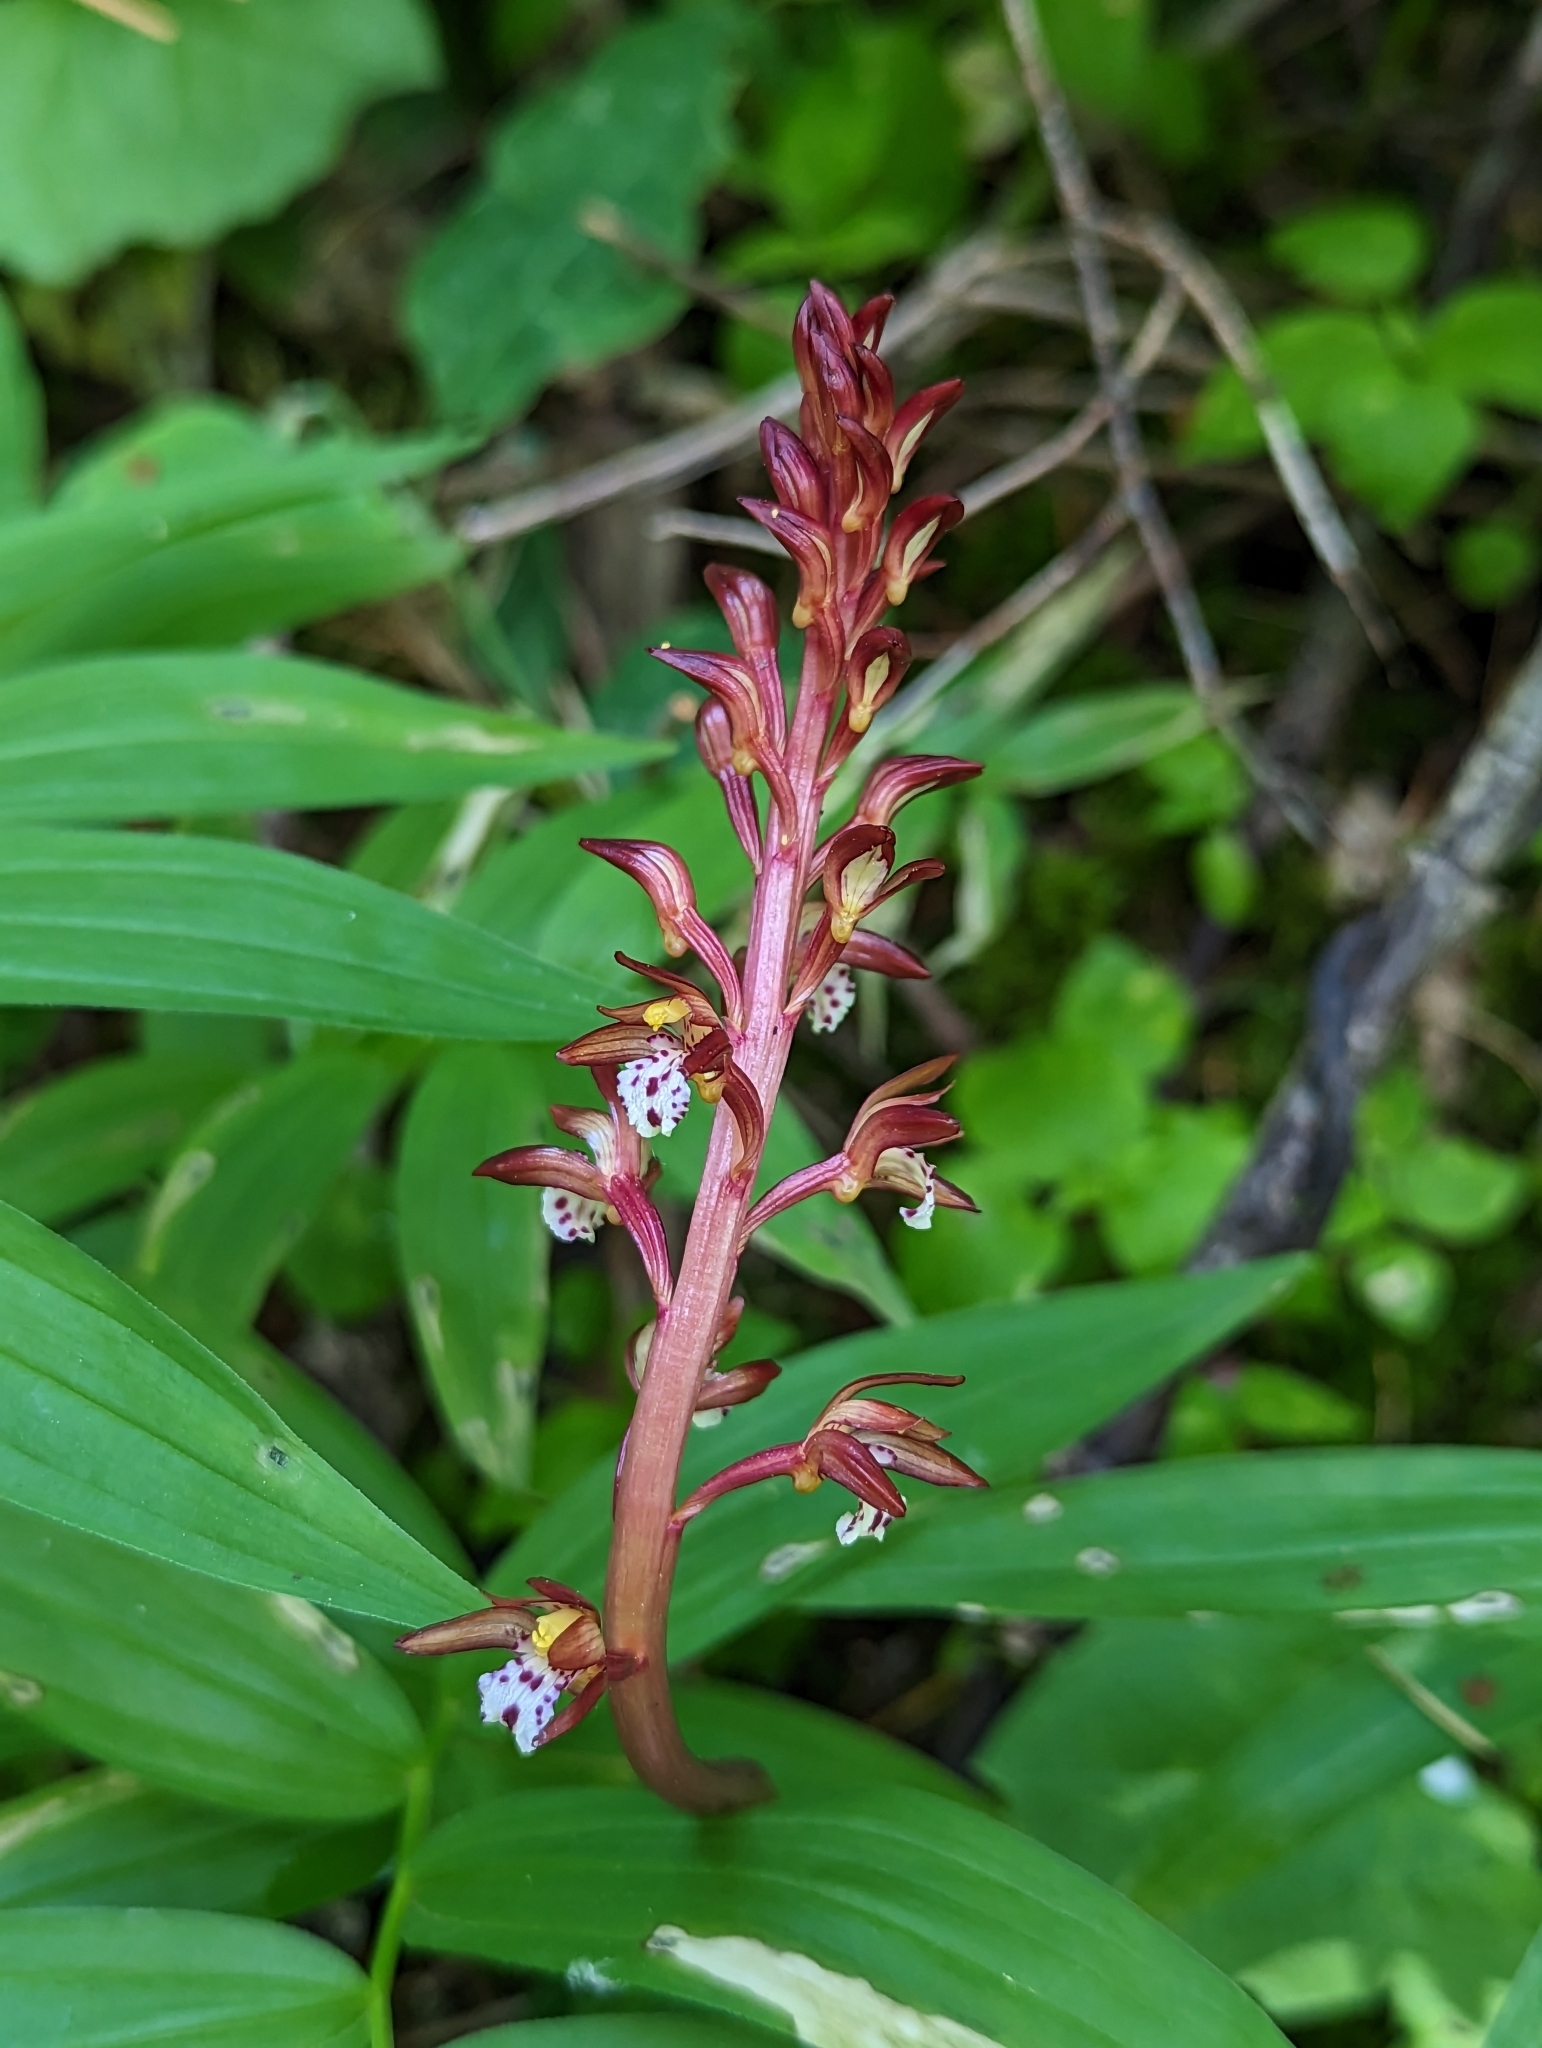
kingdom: Plantae
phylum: Tracheophyta
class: Liliopsida
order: Asparagales
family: Orchidaceae
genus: Corallorhiza
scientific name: Corallorhiza maculata
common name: Spotted coralroot
